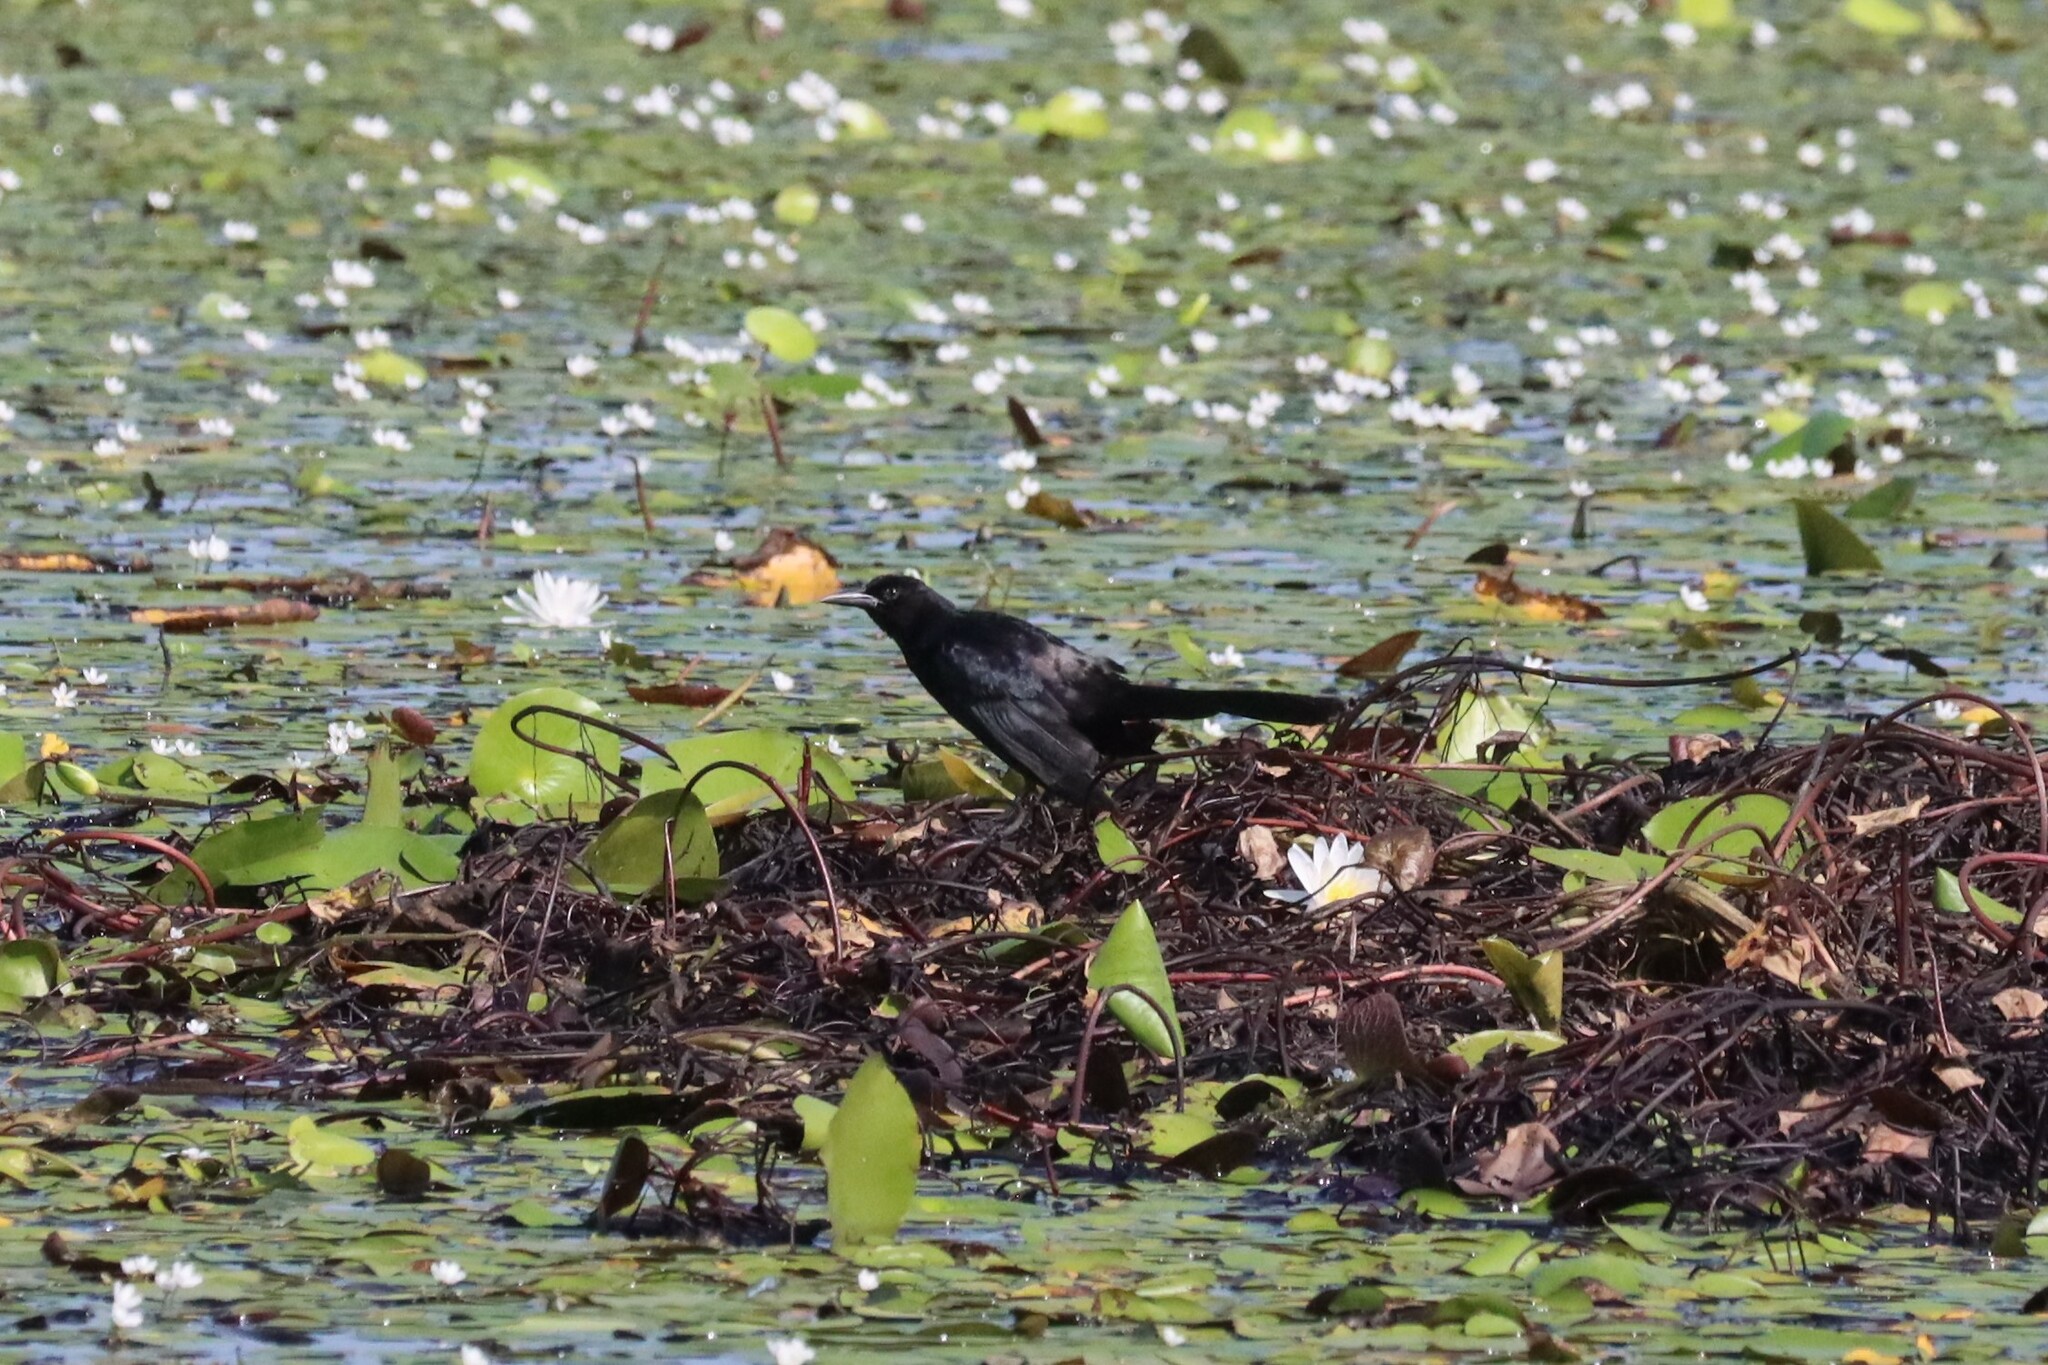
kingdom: Animalia
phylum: Chordata
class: Aves
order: Passeriformes
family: Icteridae
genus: Quiscalus
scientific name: Quiscalus major
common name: Boat-tailed grackle
